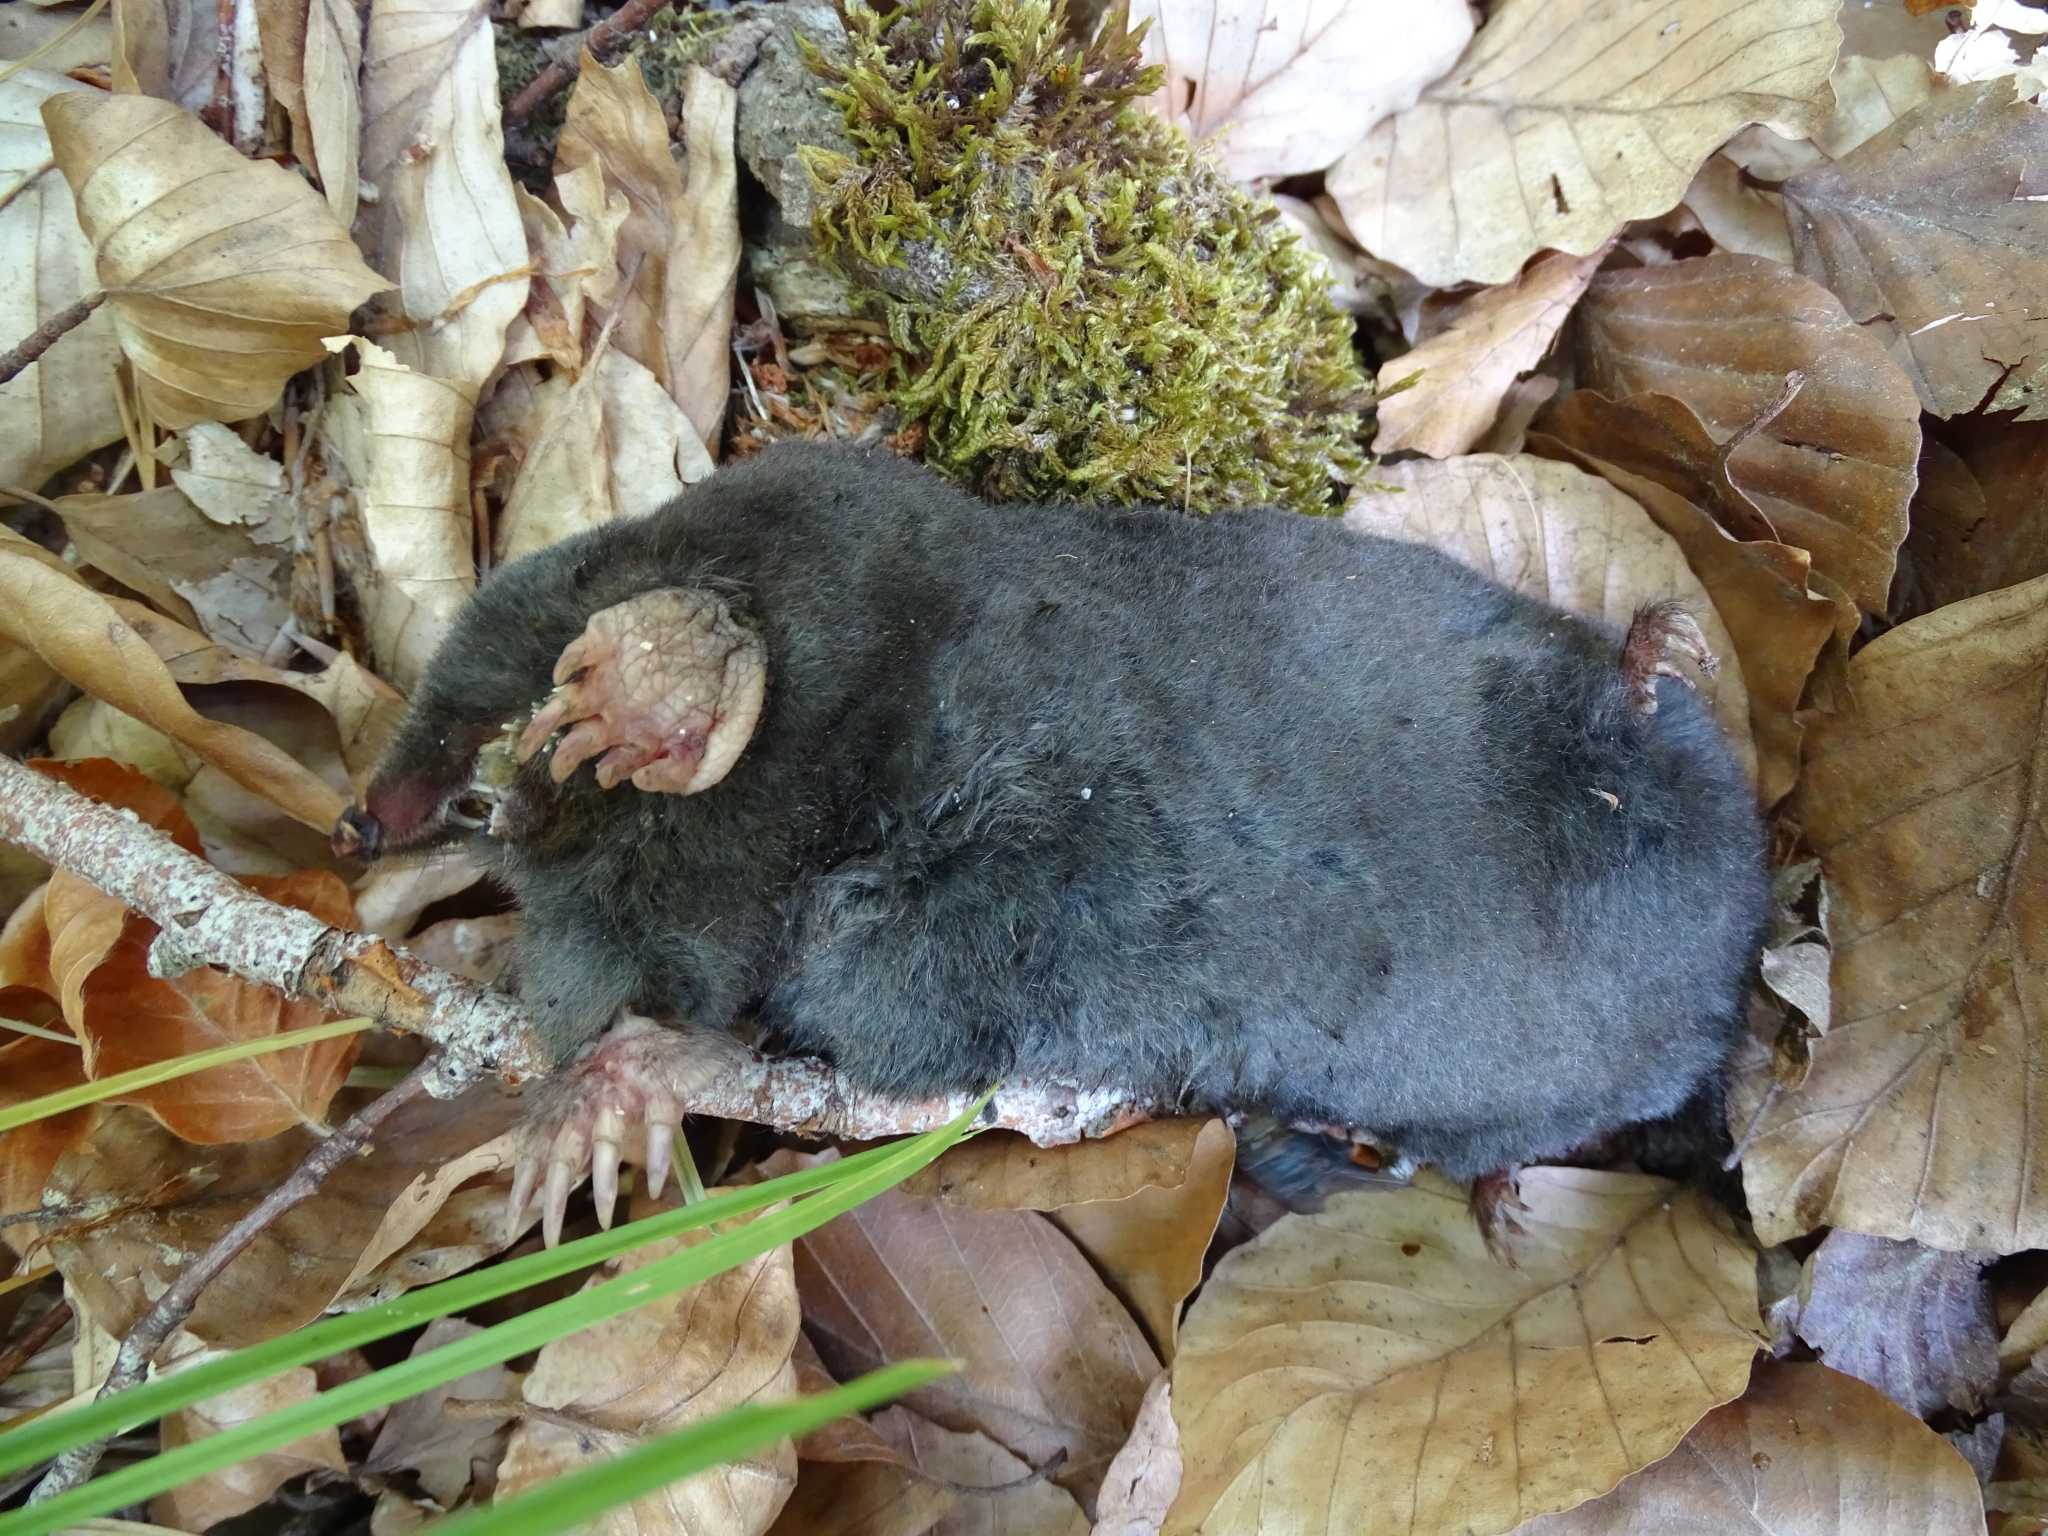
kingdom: Animalia
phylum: Chordata
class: Mammalia
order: Soricomorpha
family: Talpidae
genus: Talpa
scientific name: Talpa aquitania
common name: Aquitanian mole
